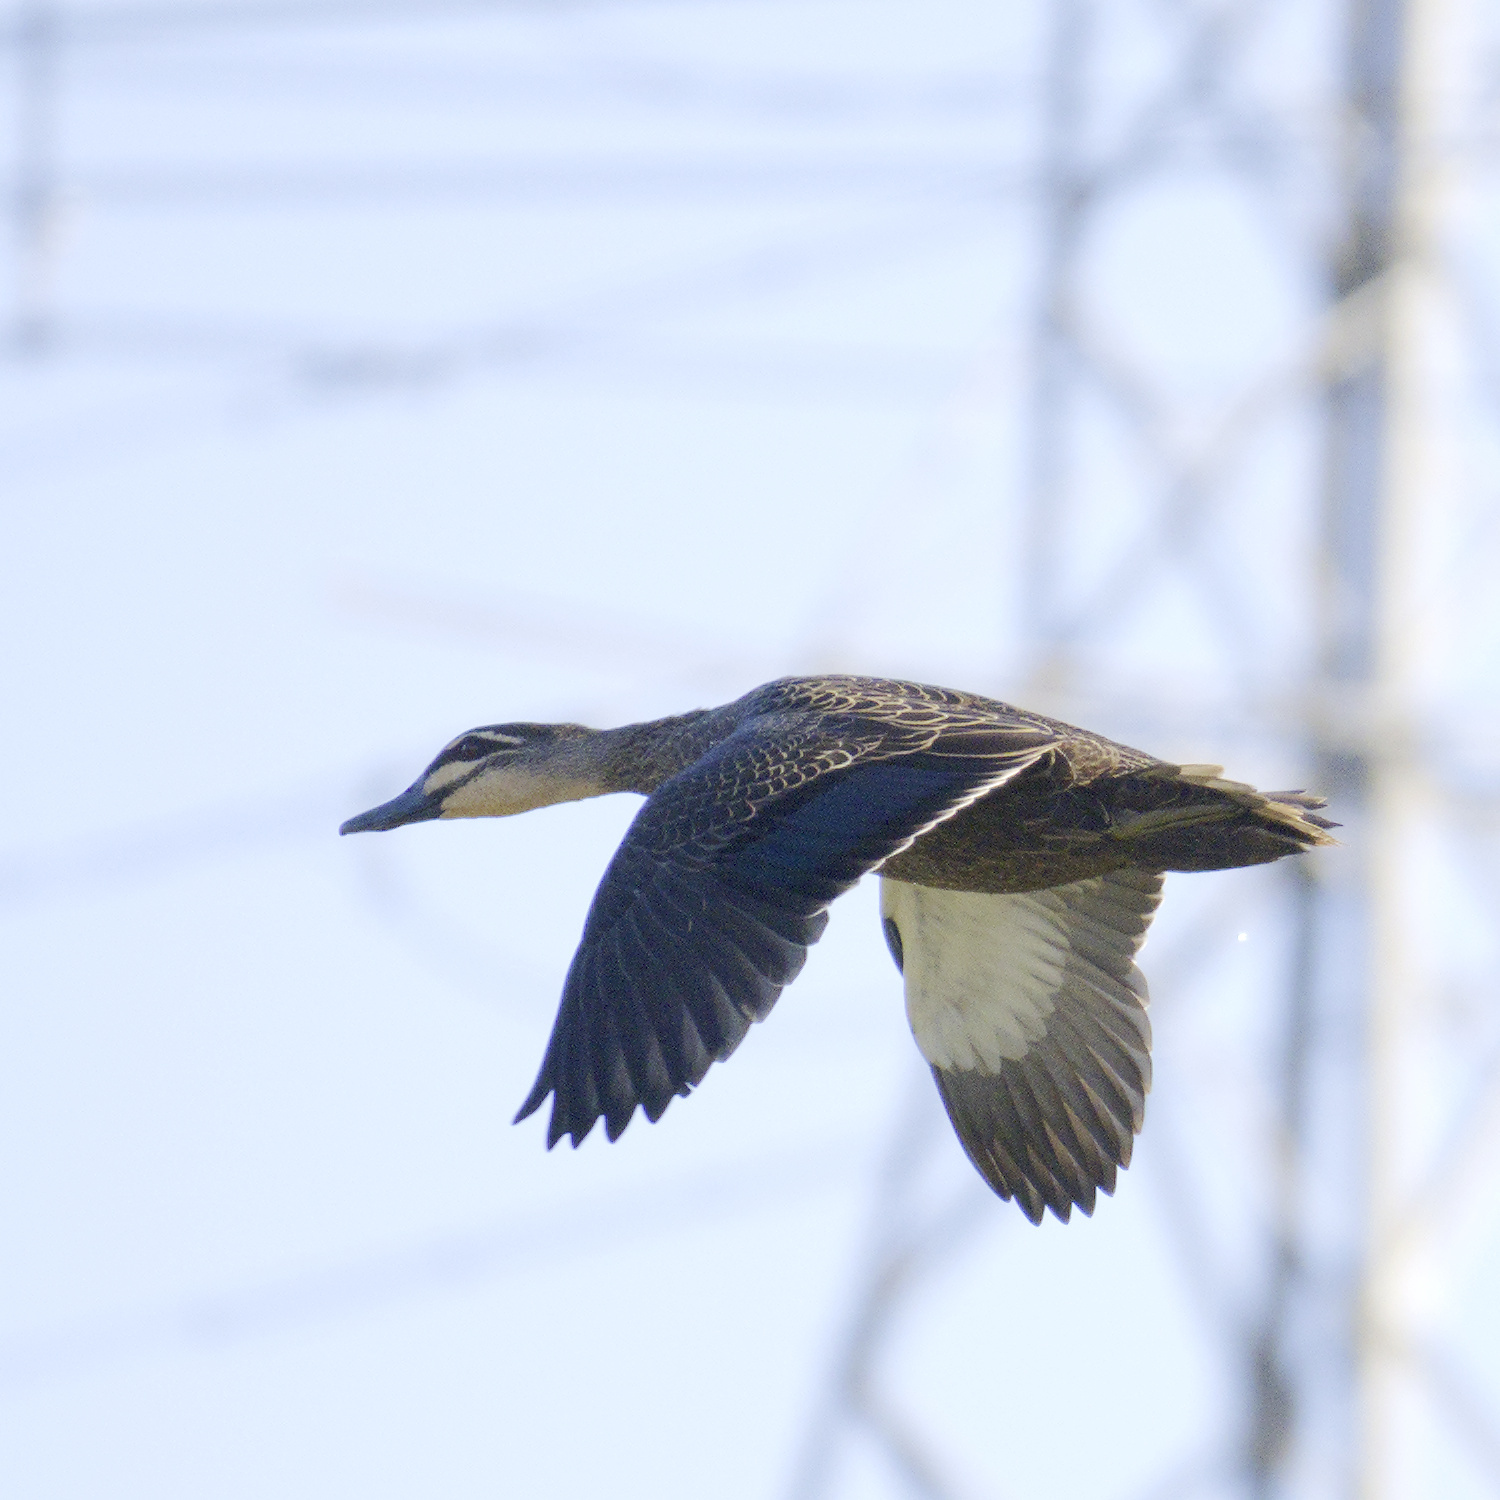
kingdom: Animalia
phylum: Chordata
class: Aves
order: Anseriformes
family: Anatidae
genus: Anas
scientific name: Anas superciliosa
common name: Pacific black duck
